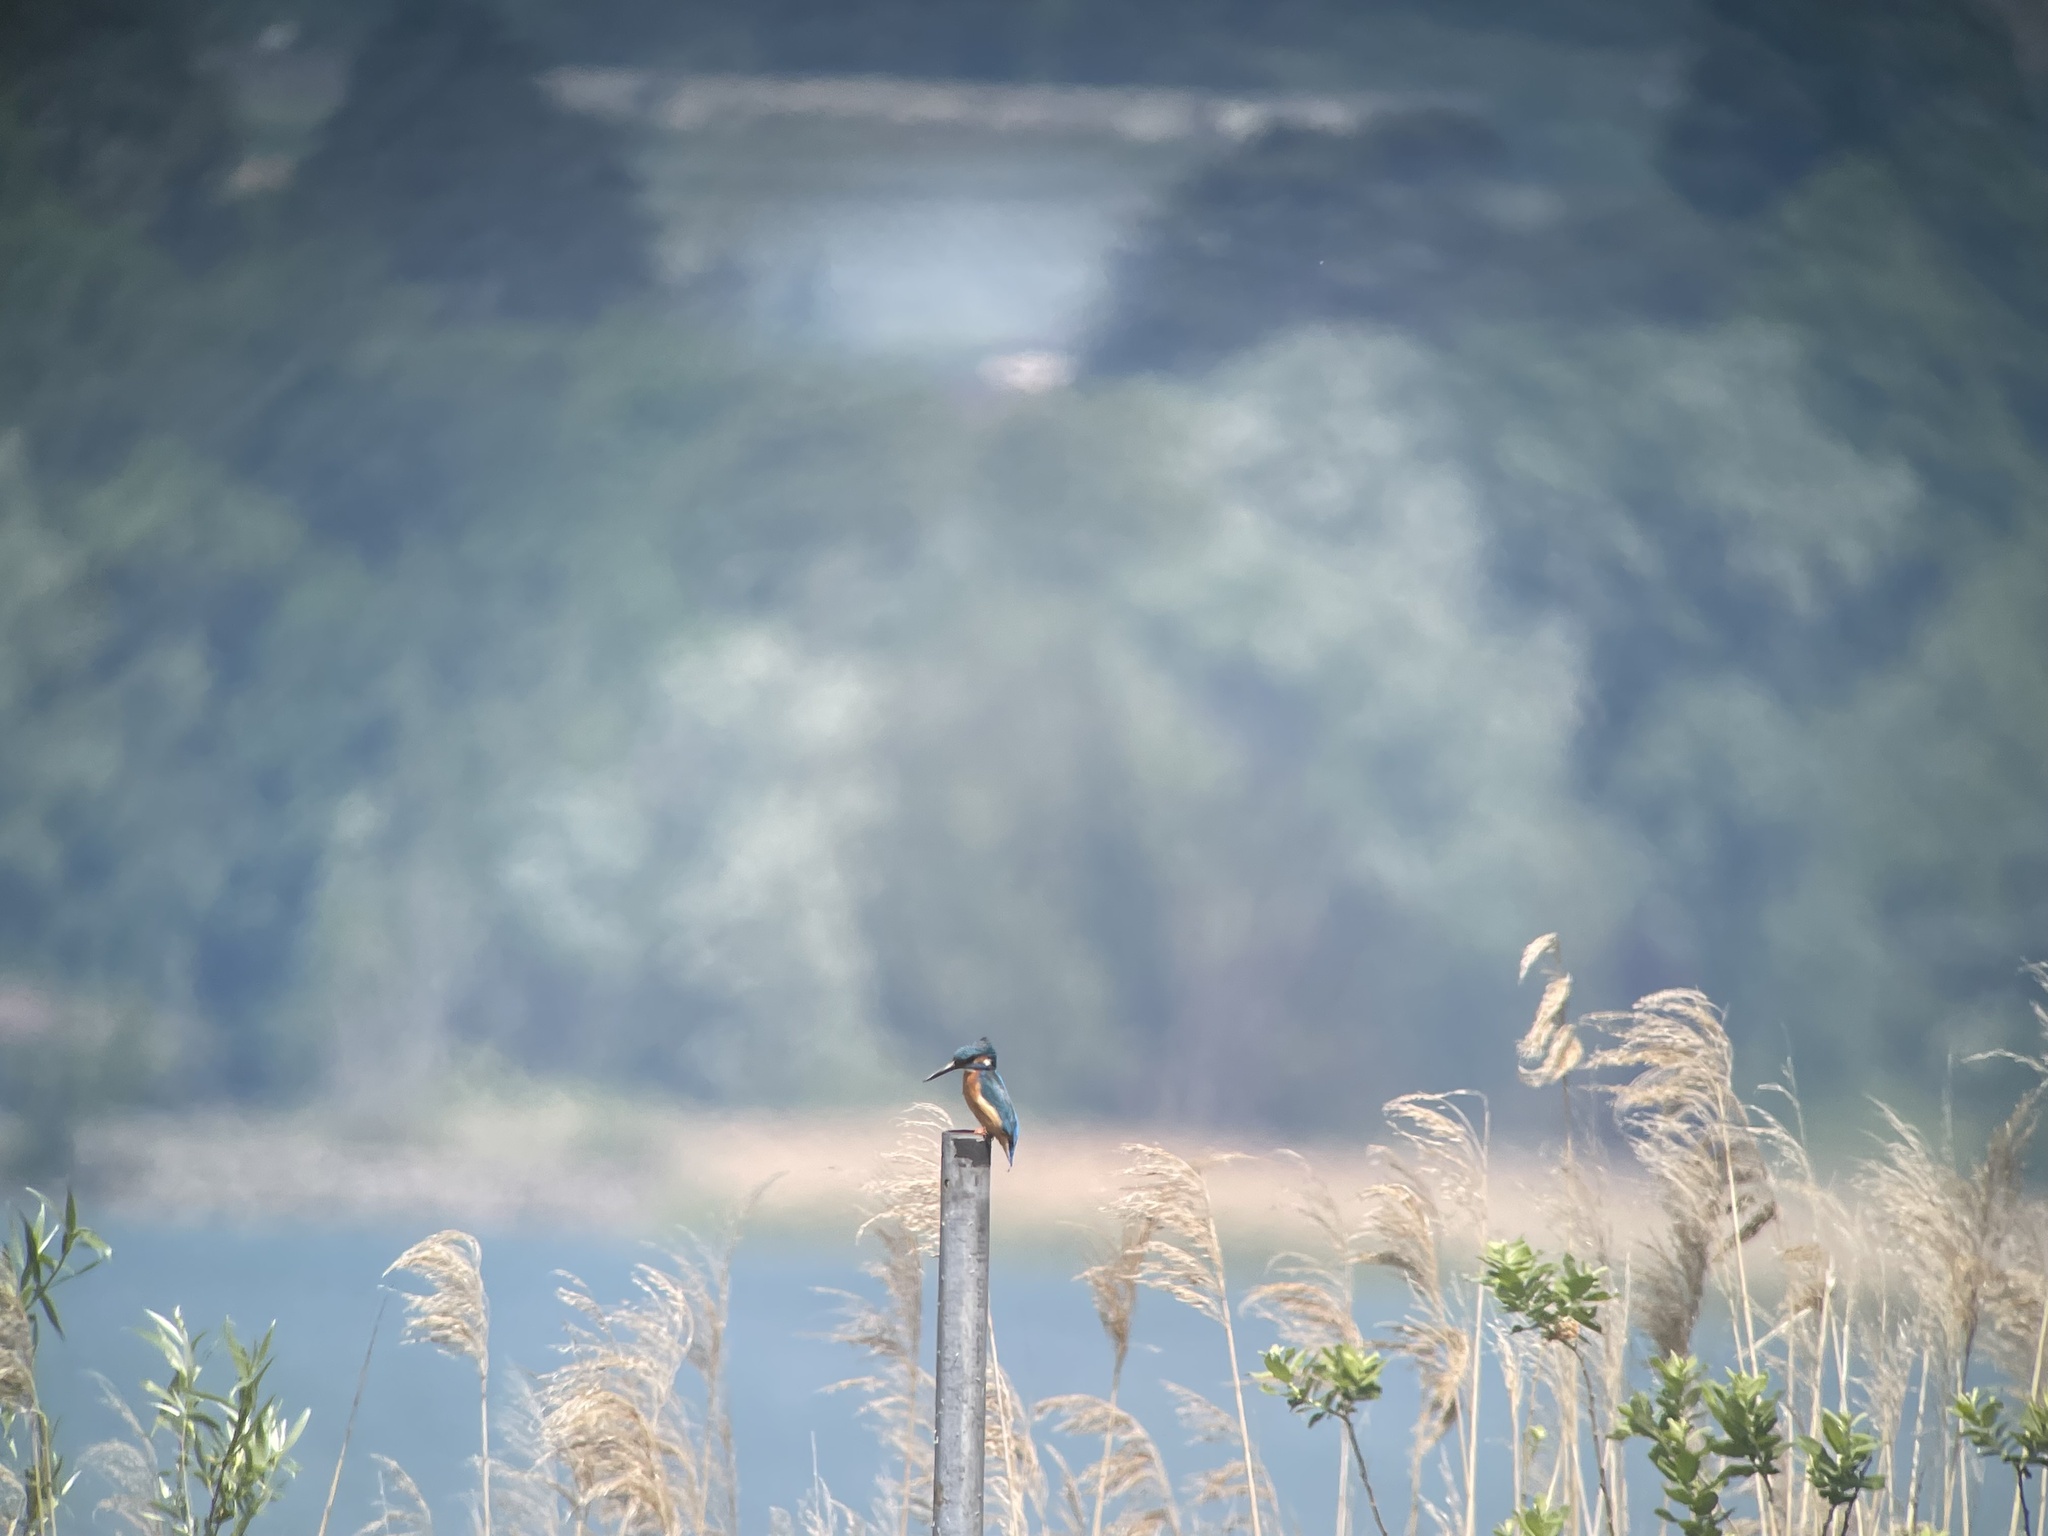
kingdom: Animalia
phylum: Chordata
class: Aves
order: Coraciiformes
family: Alcedinidae
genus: Alcedo
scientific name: Alcedo atthis
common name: Common kingfisher
